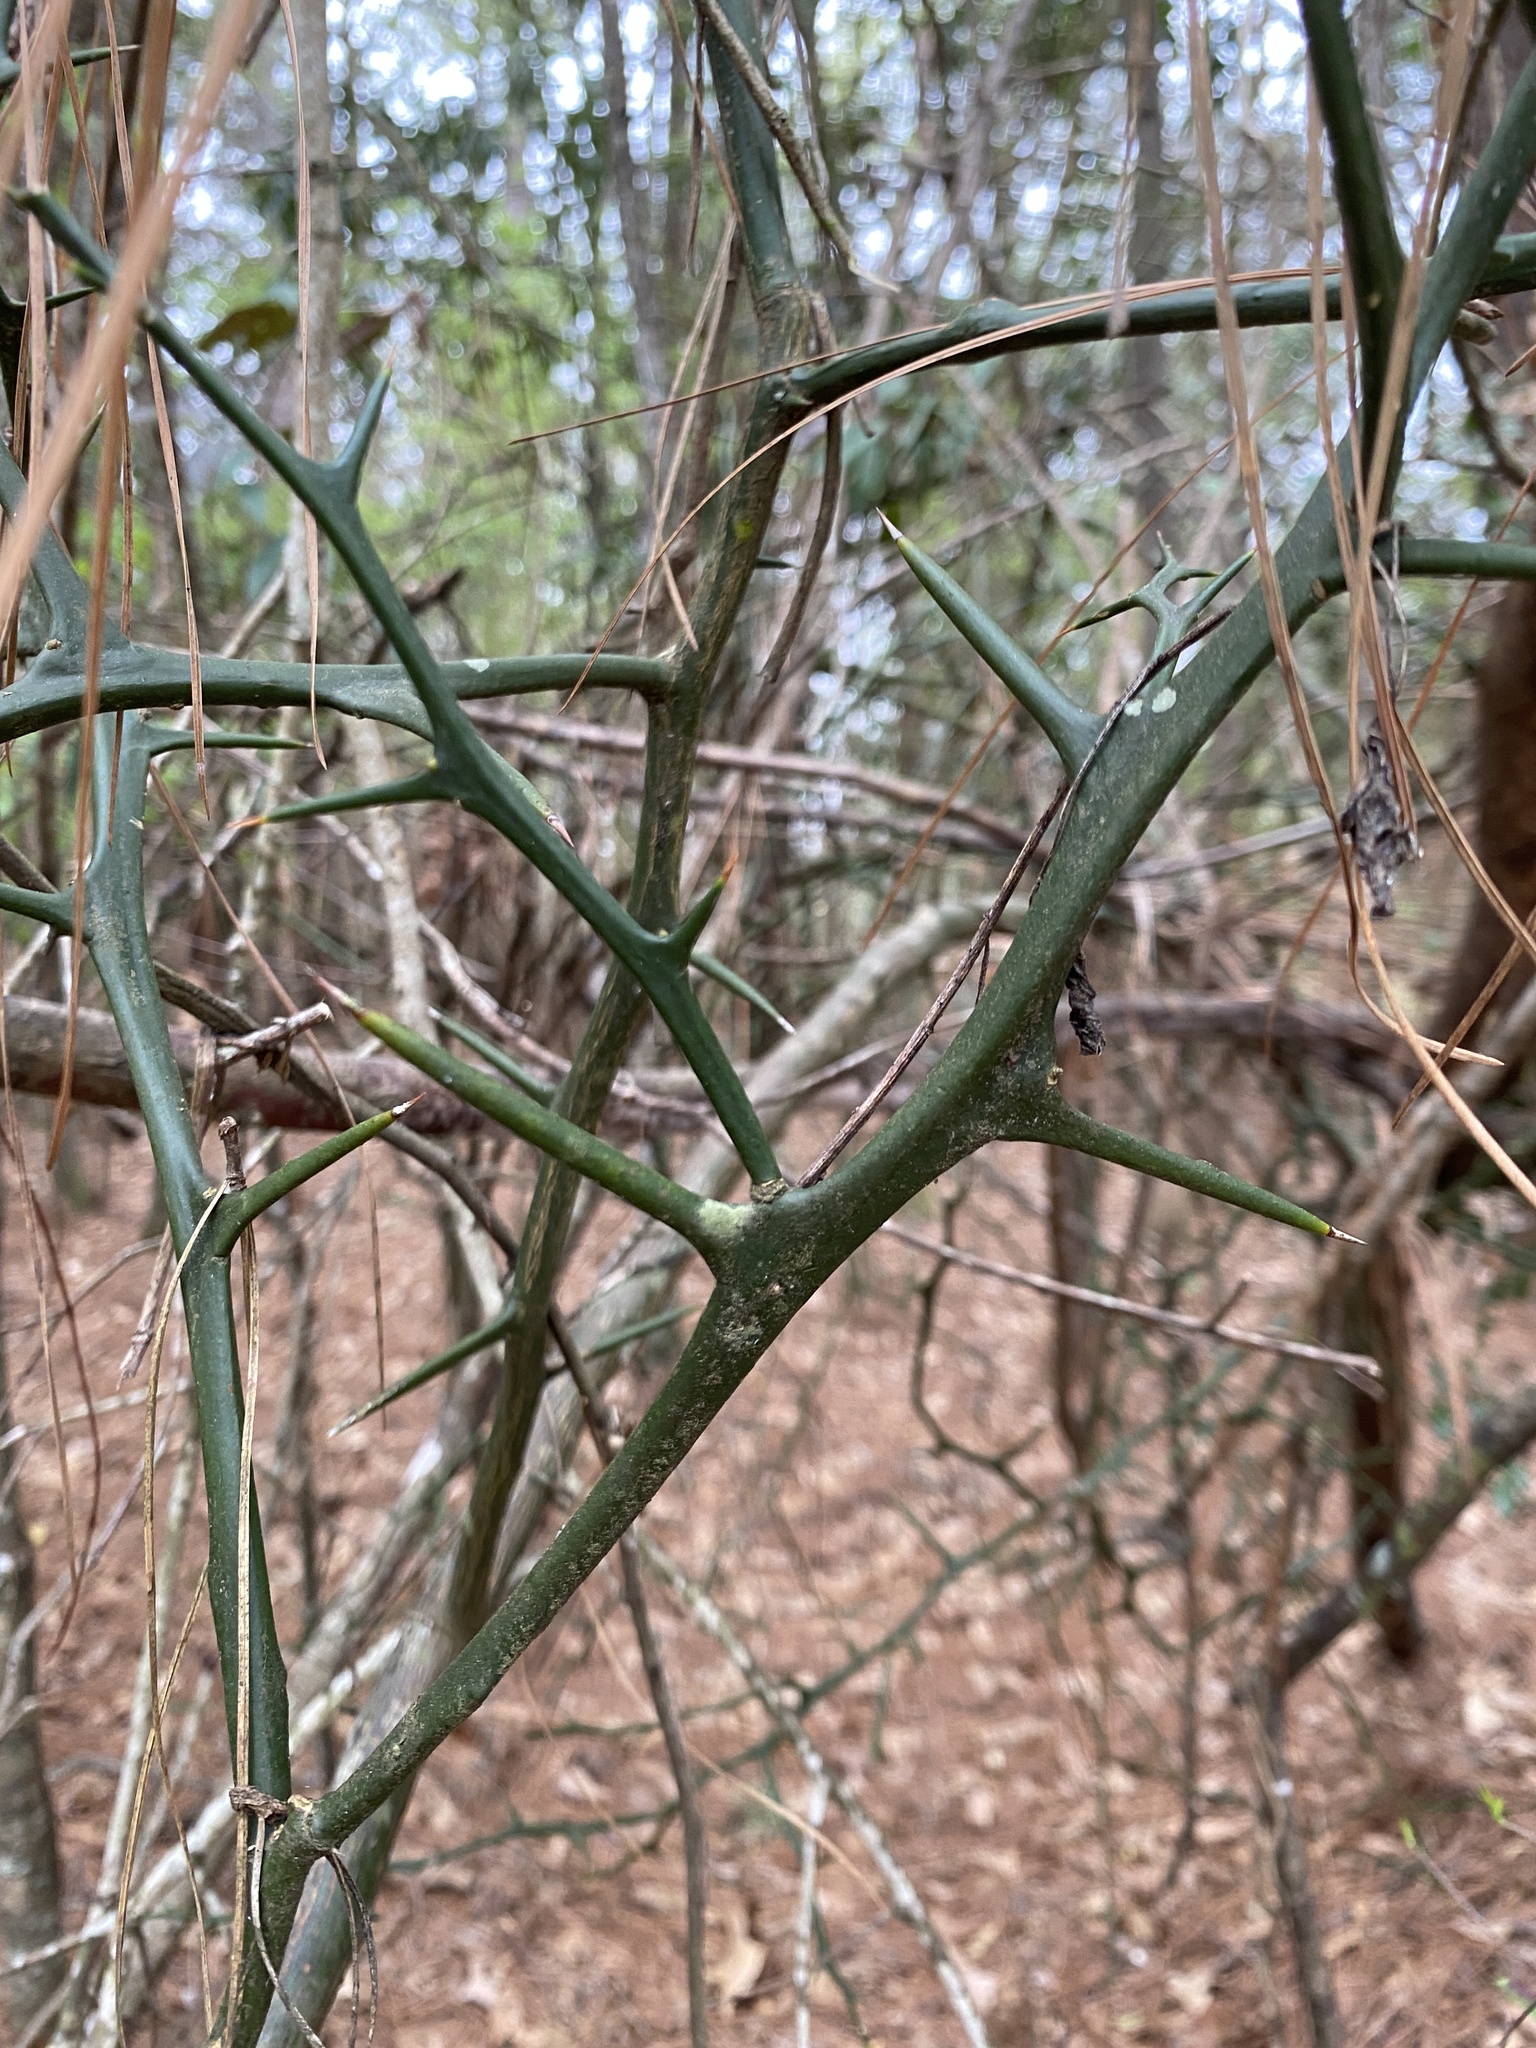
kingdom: Plantae
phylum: Tracheophyta
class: Magnoliopsida
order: Sapindales
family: Rutaceae
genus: Citrus
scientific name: Citrus trifoliata
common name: Japanese bitter-orange
